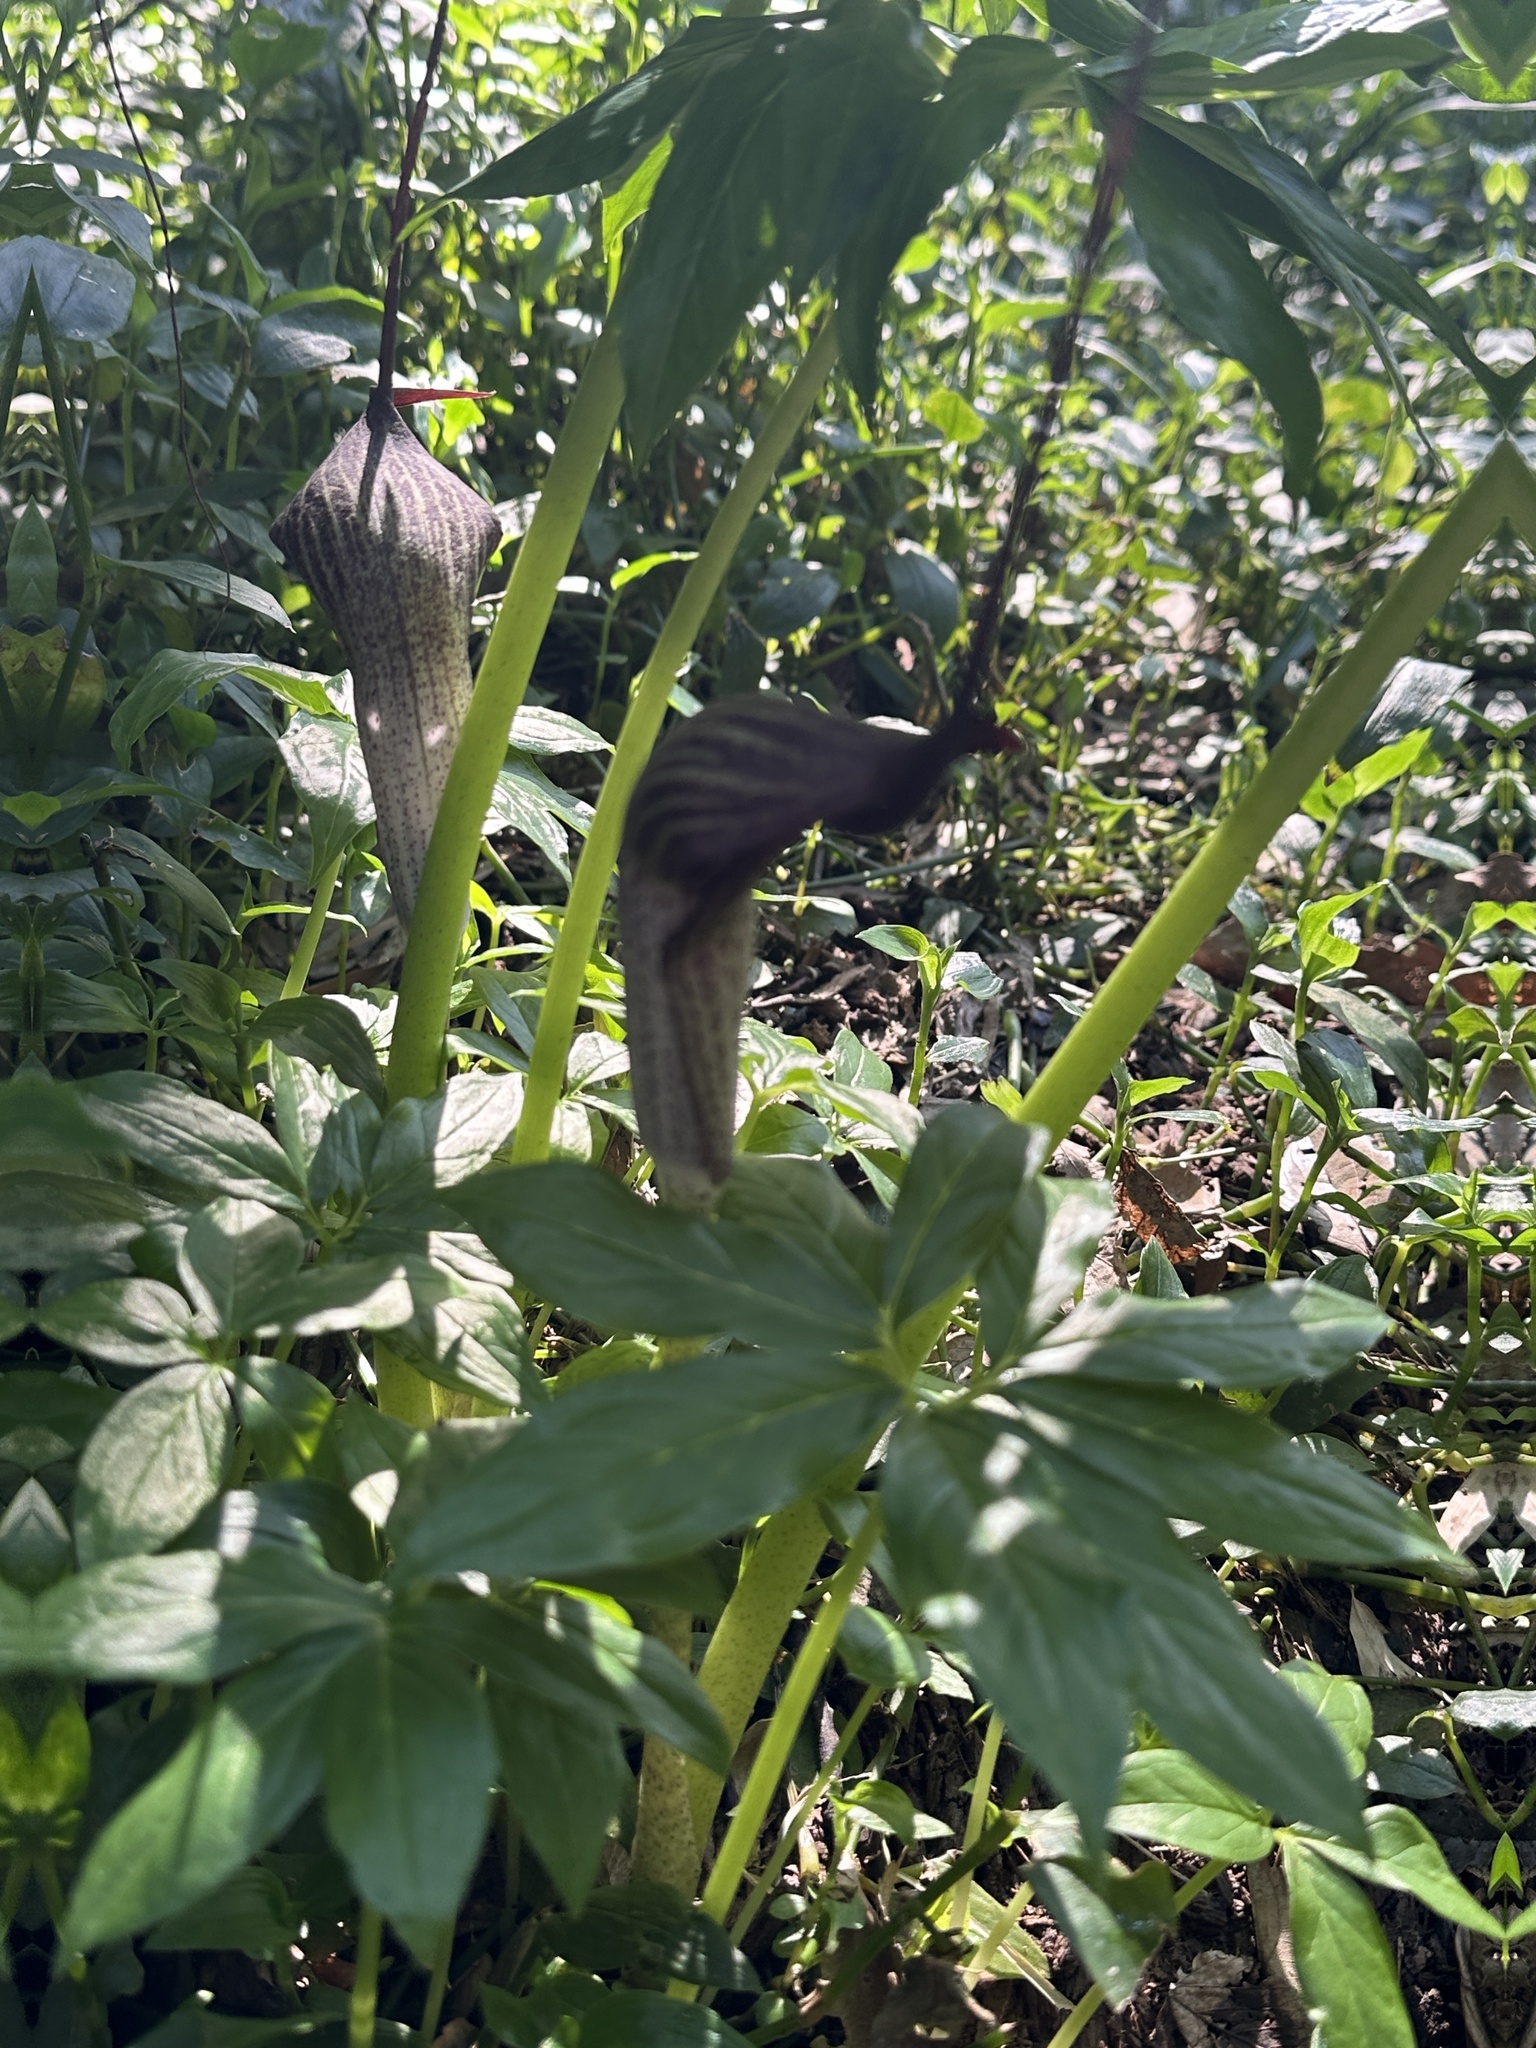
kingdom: Plantae
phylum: Tracheophyta
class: Liliopsida
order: Alismatales
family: Araceae
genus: Arisaema
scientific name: Arisaema thunbergii
